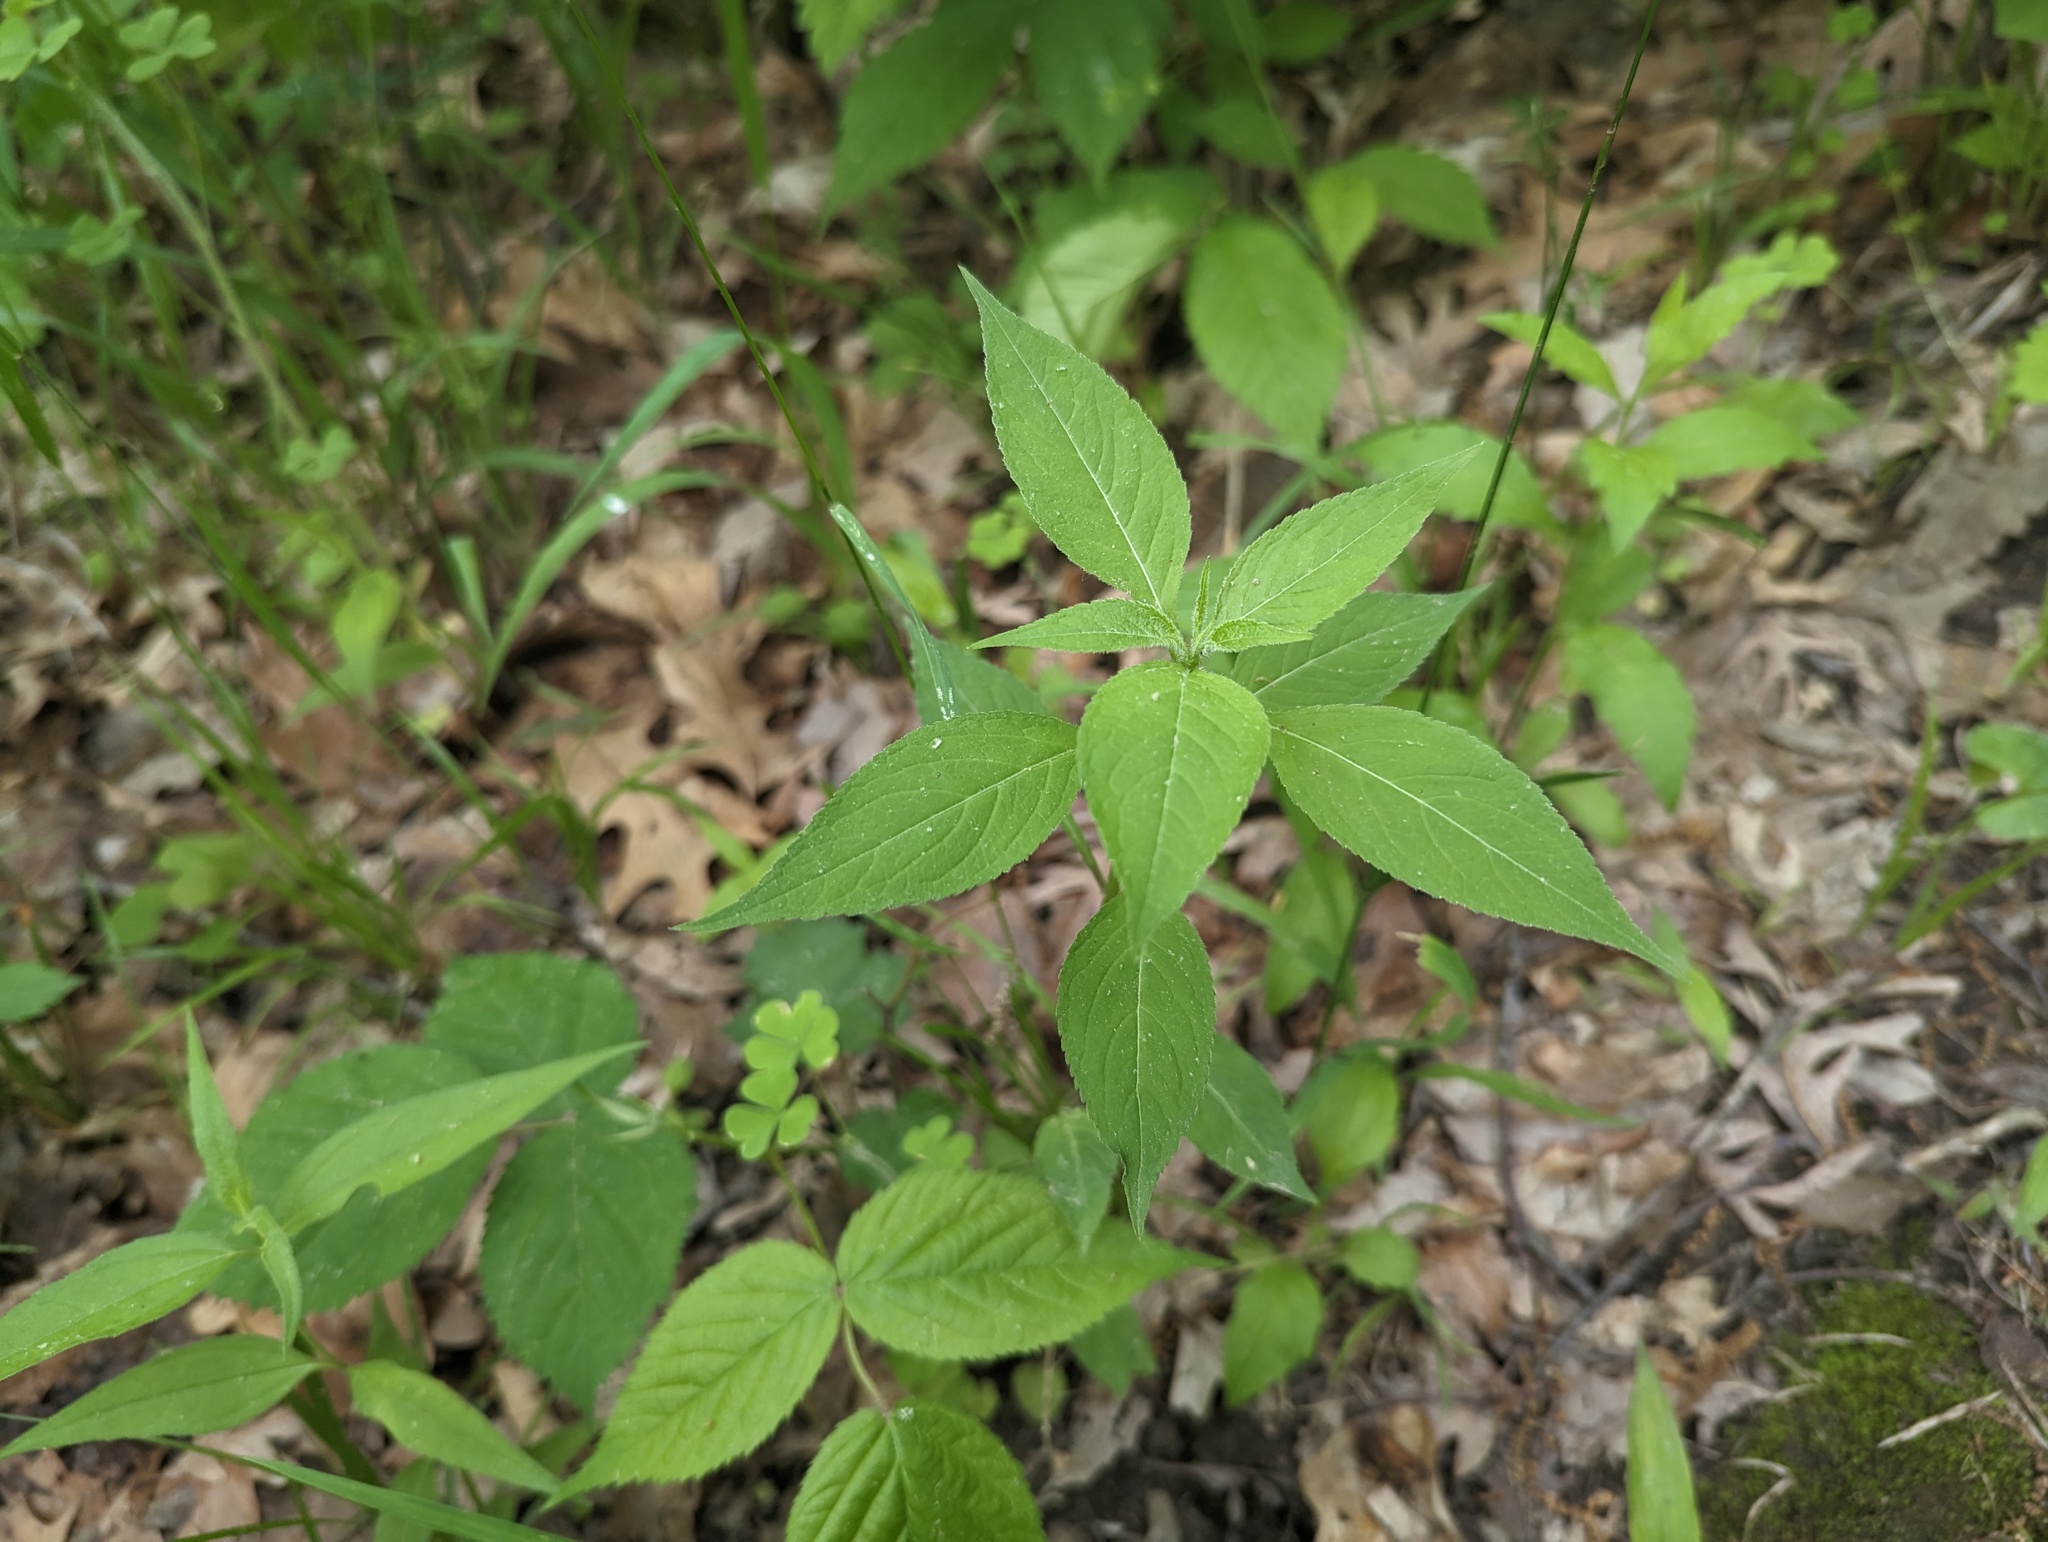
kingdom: Plantae
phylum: Tracheophyta
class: Magnoliopsida
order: Asterales
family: Campanulaceae
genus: Campanulastrum
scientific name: Campanulastrum americanum
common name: American bellflower
